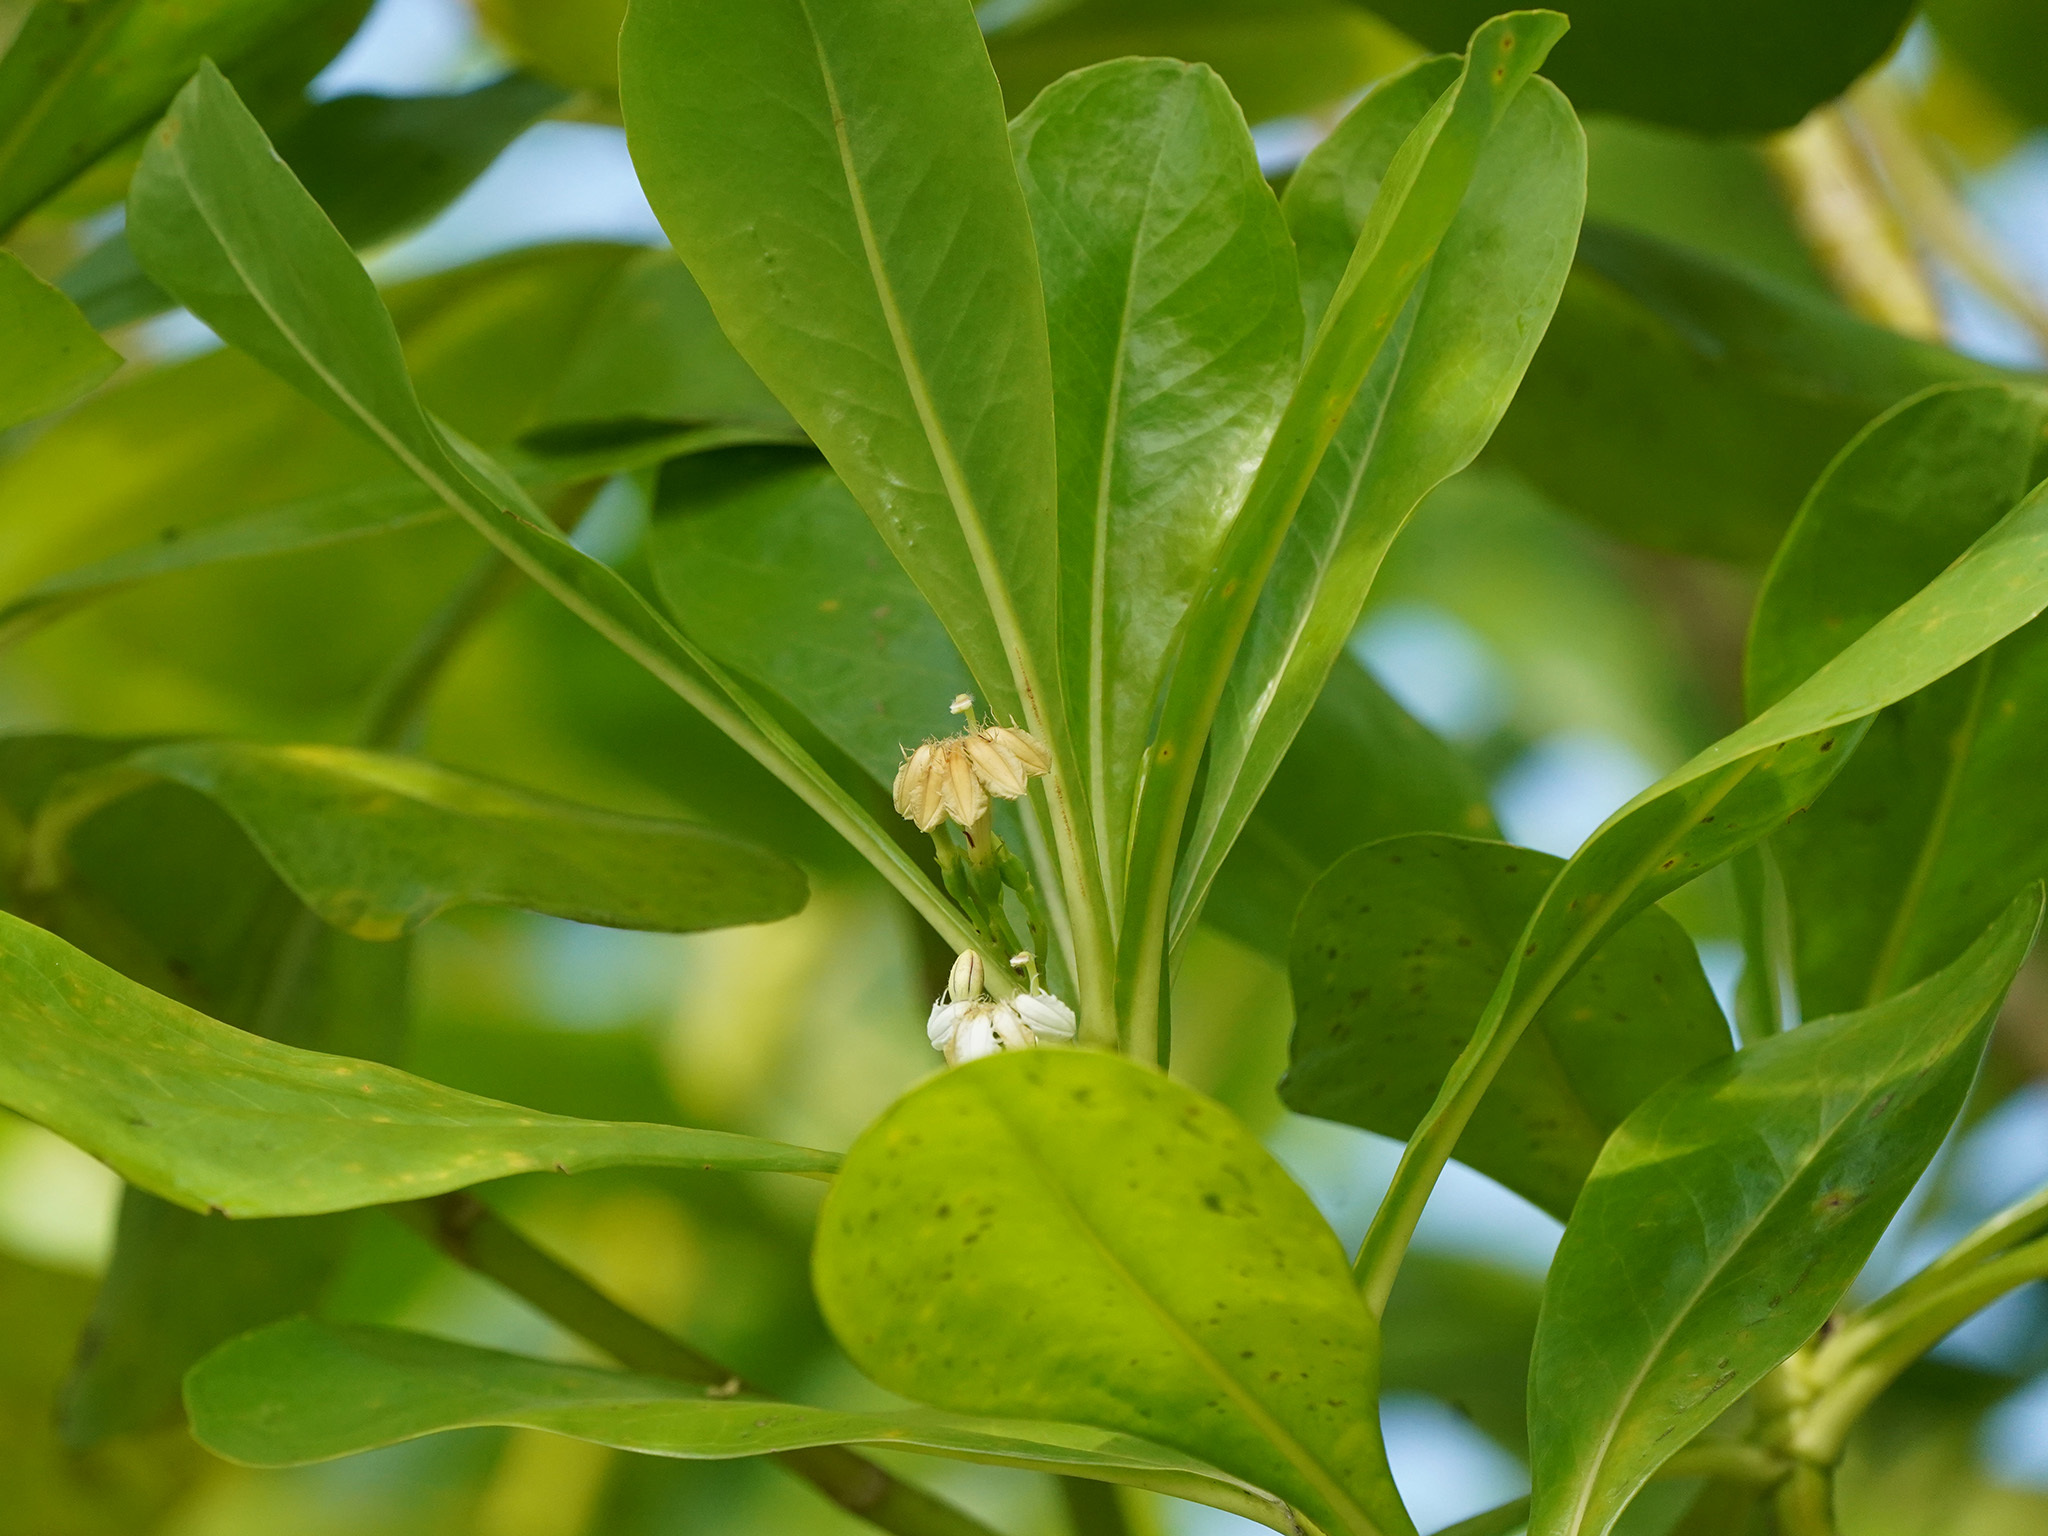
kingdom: Plantae
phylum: Tracheophyta
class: Magnoliopsida
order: Asterales
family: Goodeniaceae
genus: Scaevola
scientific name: Scaevola taccada
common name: Sea lettucetree
